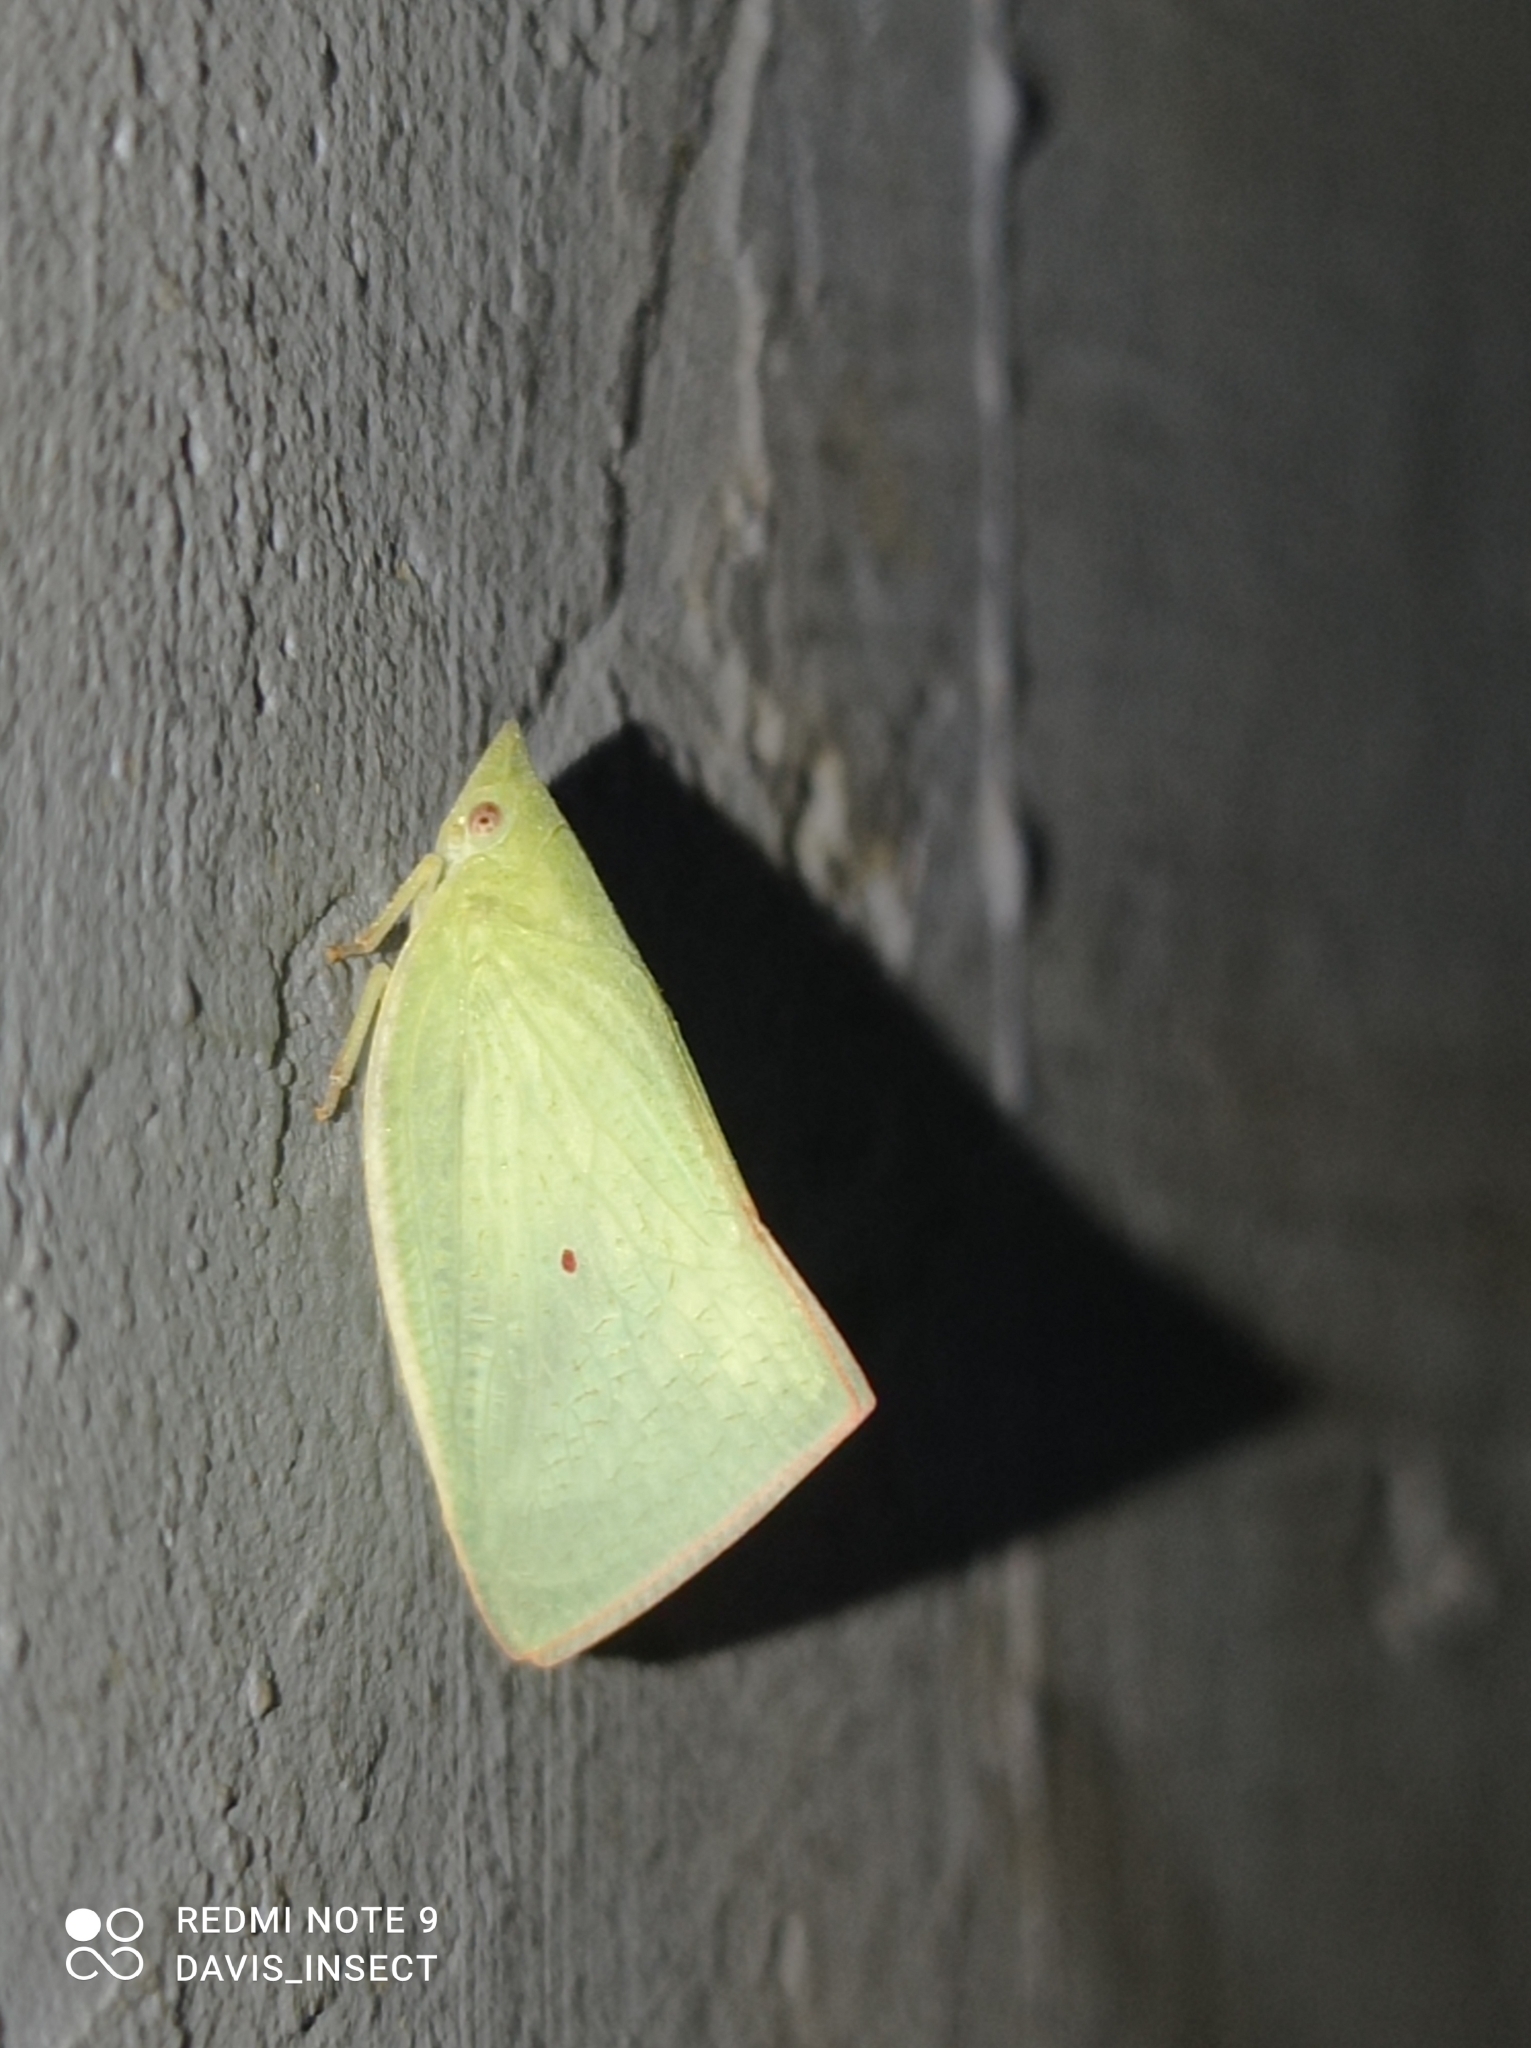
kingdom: Animalia
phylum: Arthropoda
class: Insecta
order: Hemiptera
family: Flatidae
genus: Colgaroides
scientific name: Colgaroides acuminata
